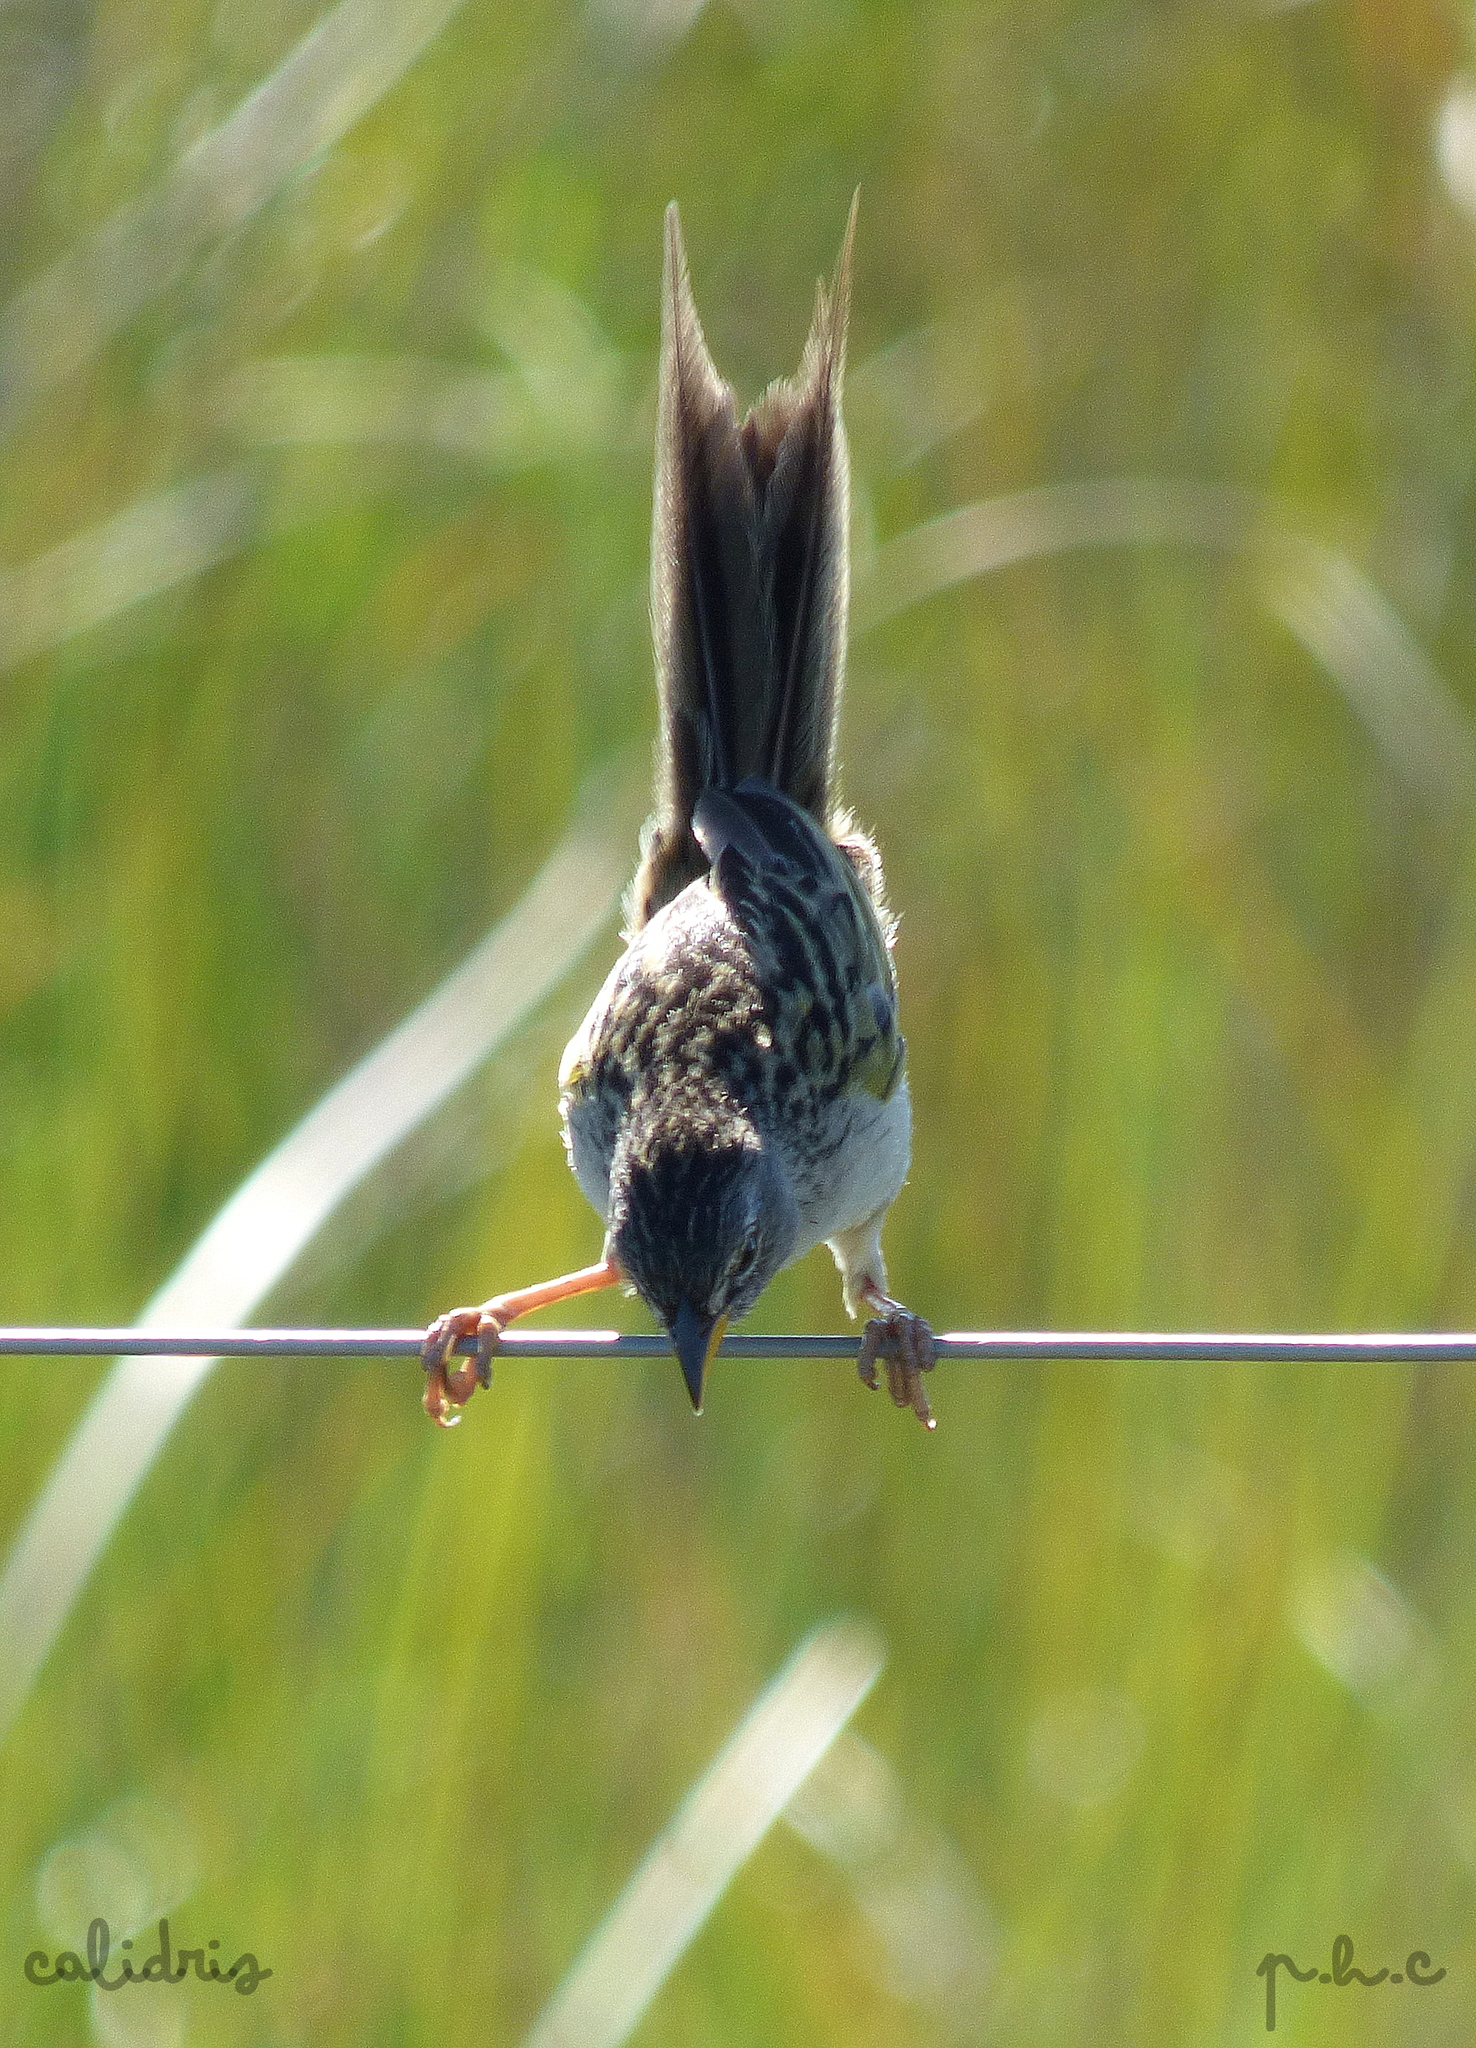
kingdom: Animalia
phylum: Chordata
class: Aves
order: Passeriformes
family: Thraupidae
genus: Emberizoides
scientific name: Emberizoides ypiranganus
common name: Lesser grass finch
